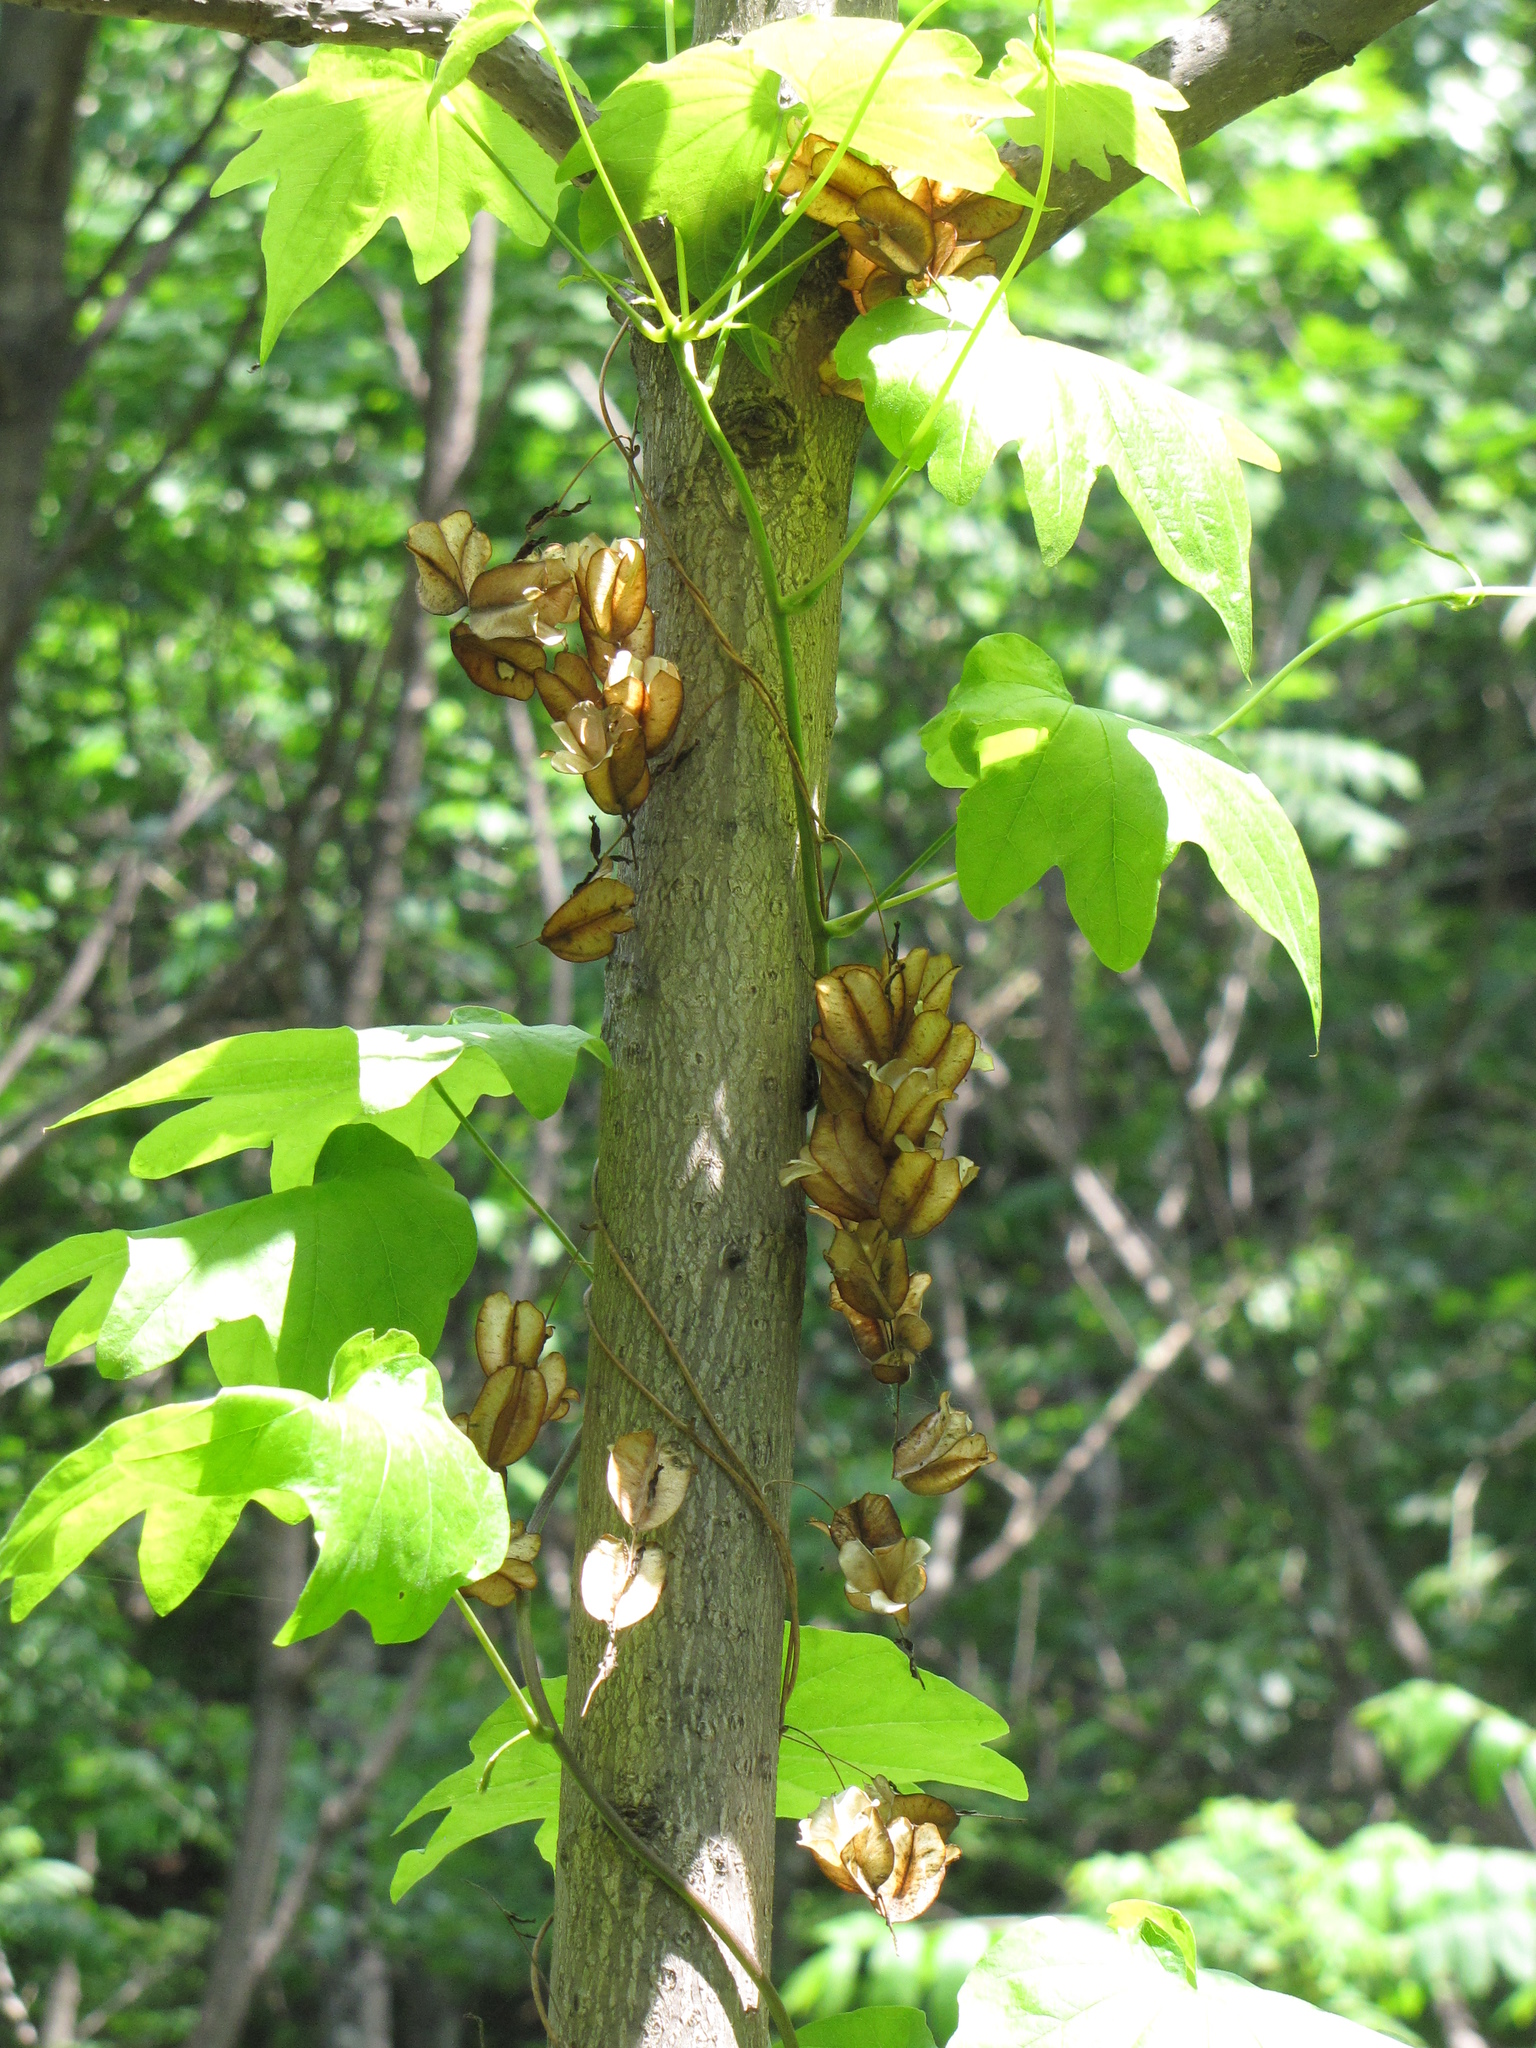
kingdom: Plantae
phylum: Tracheophyta
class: Liliopsida
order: Dioscoreales
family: Dioscoreaceae
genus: Dioscorea
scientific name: Dioscorea nipponica
